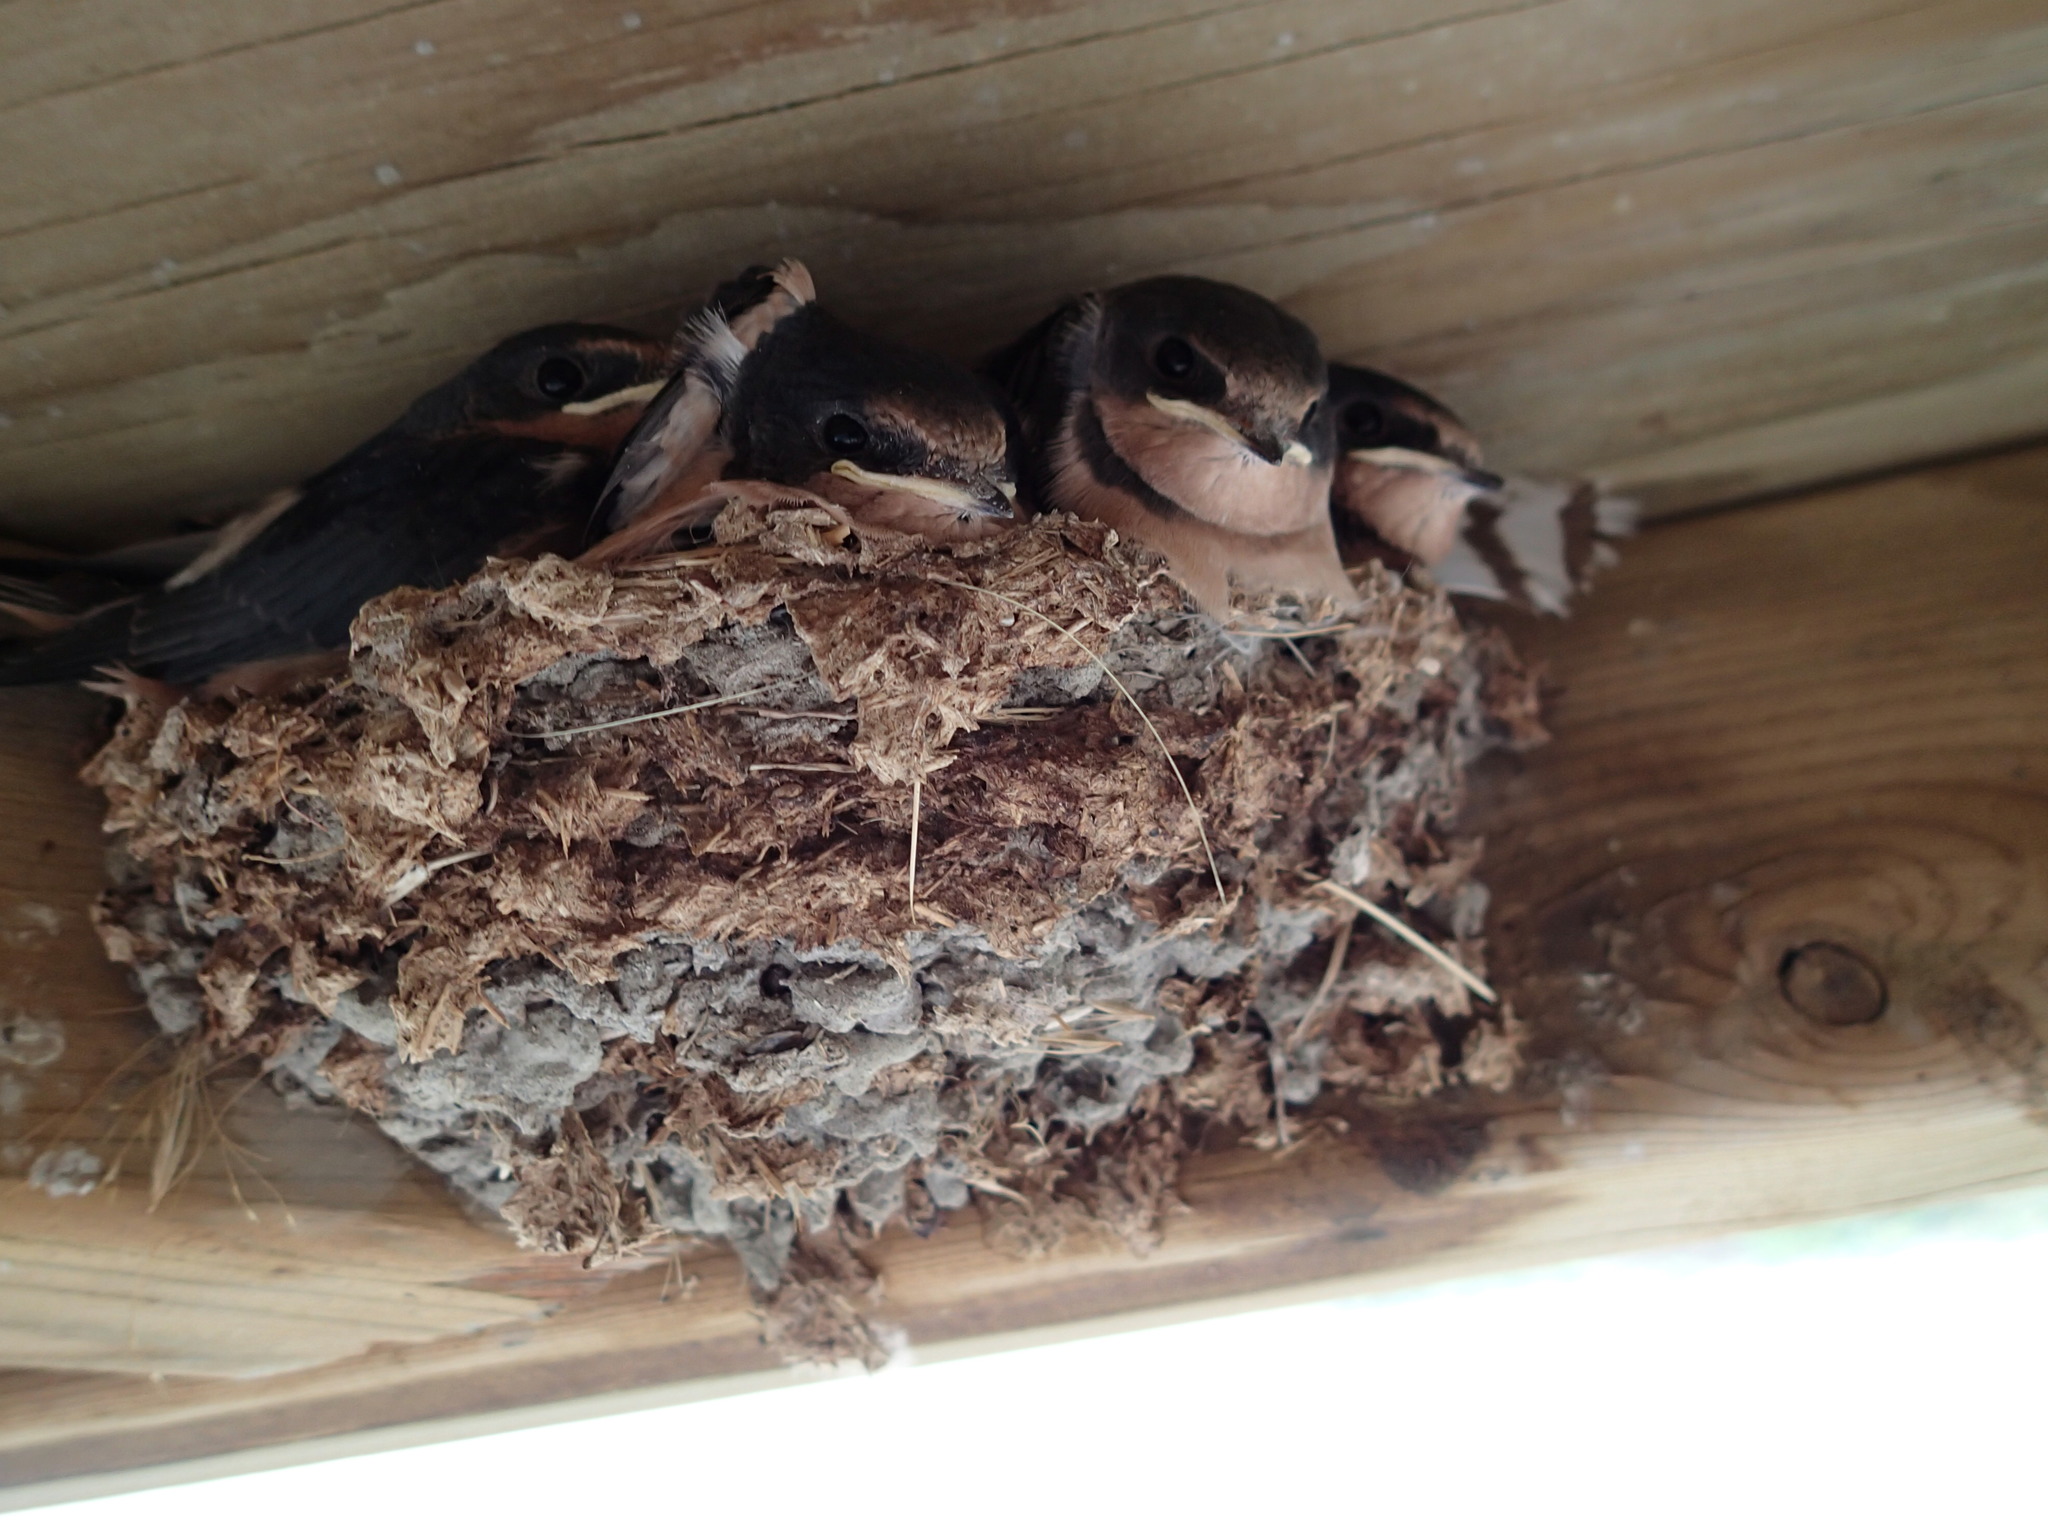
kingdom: Animalia
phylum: Chordata
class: Aves
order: Passeriformes
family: Hirundinidae
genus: Hirundo
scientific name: Hirundo rustica
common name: Barn swallow
